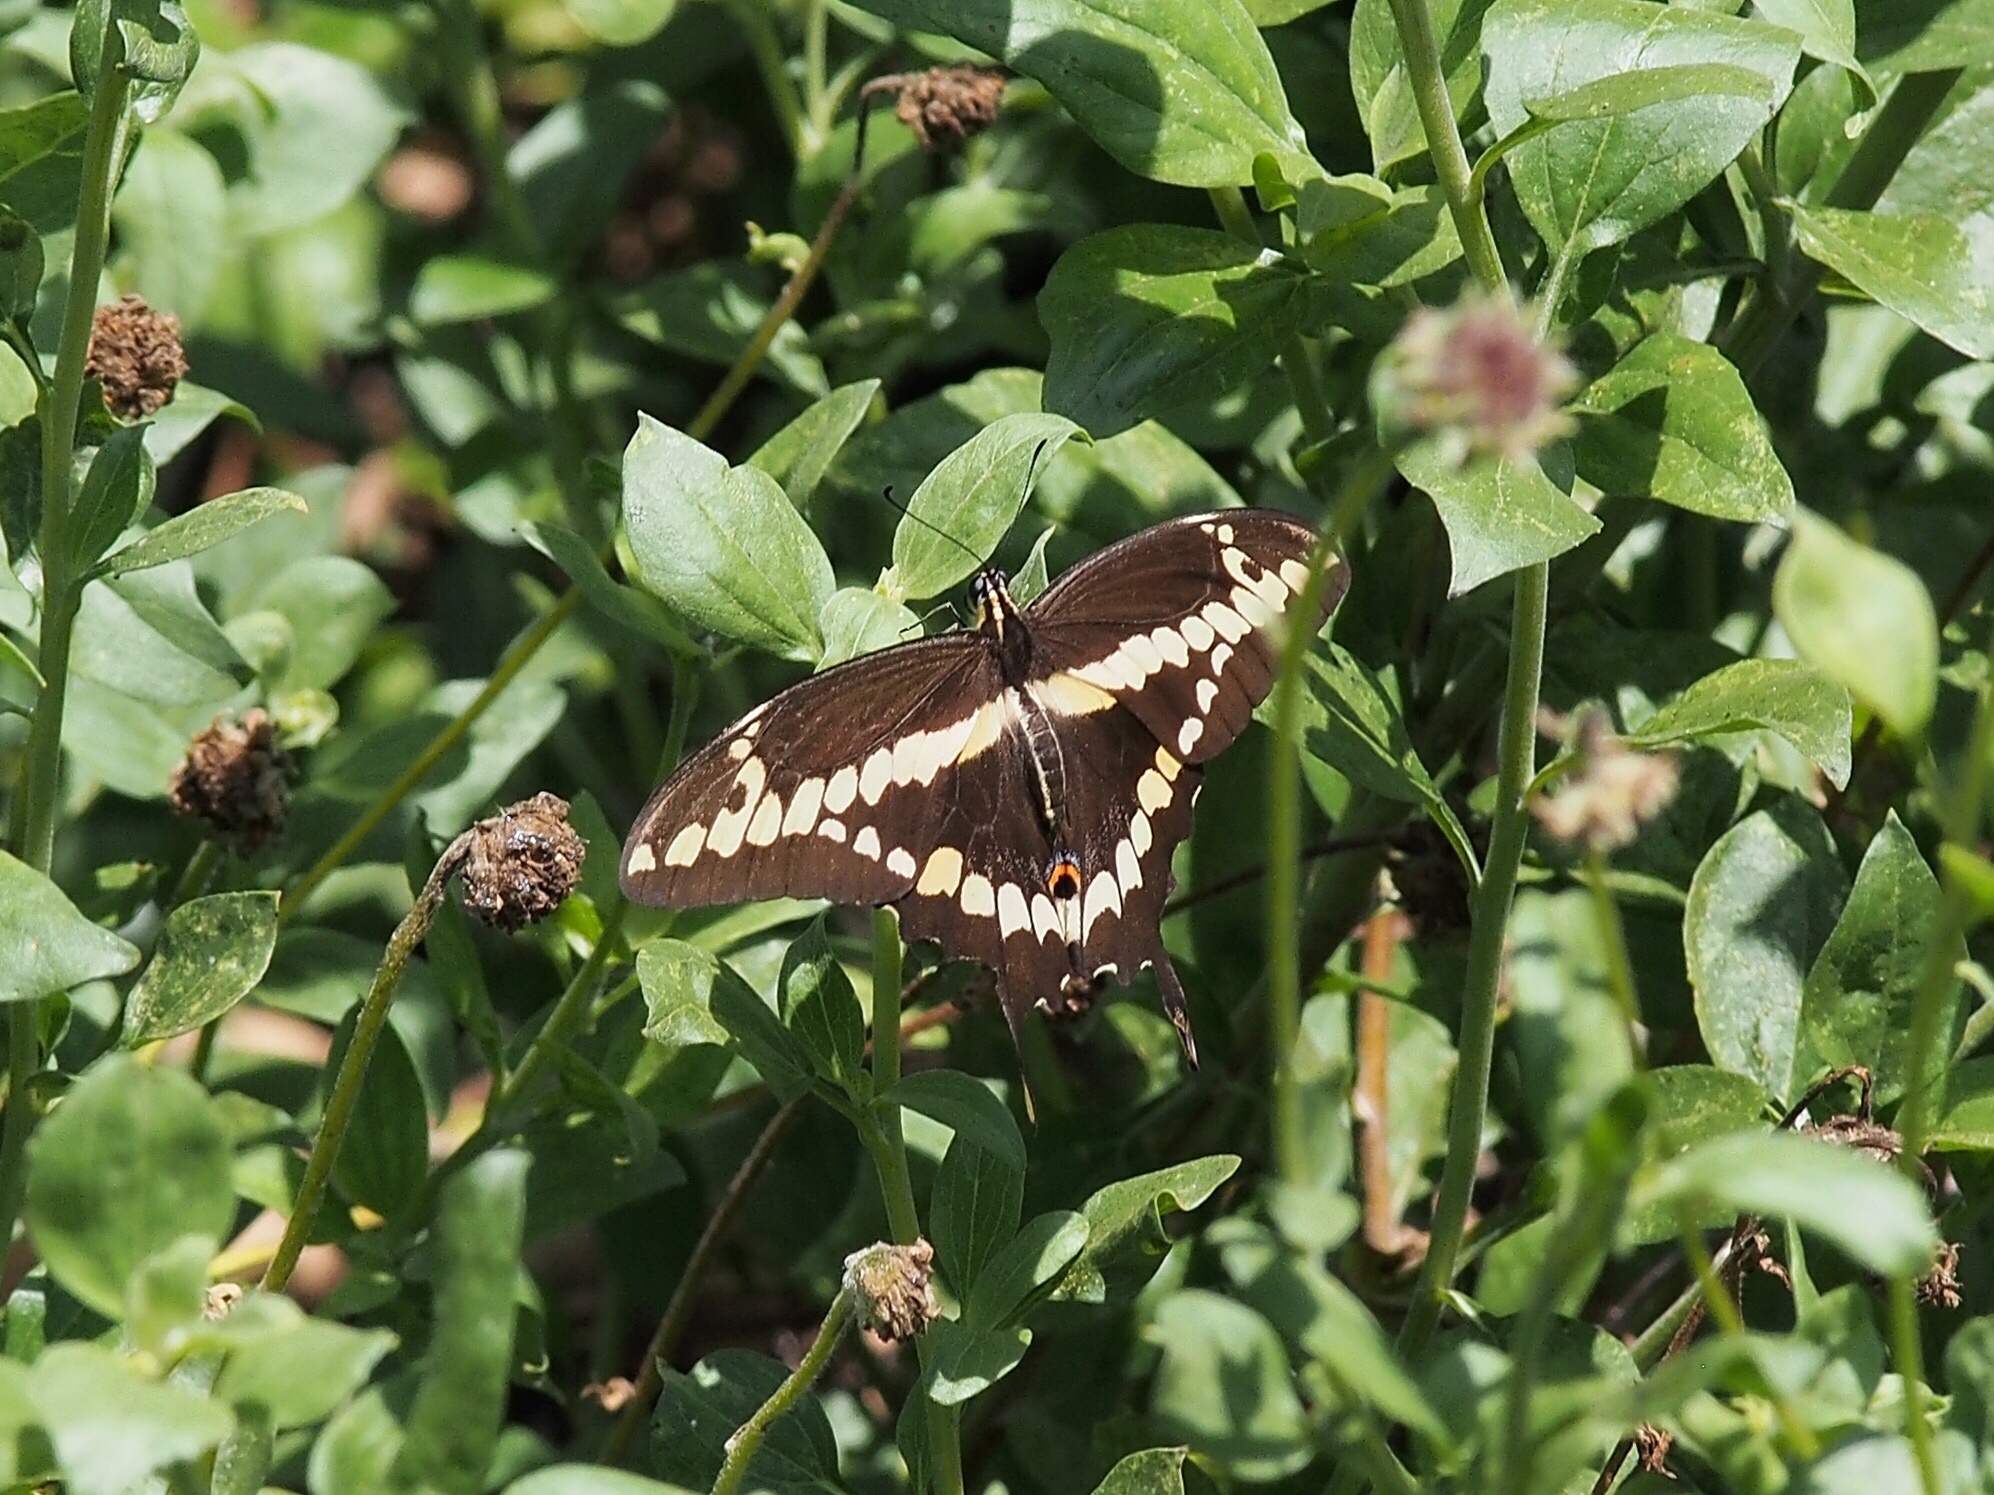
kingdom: Animalia
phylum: Arthropoda
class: Insecta
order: Lepidoptera
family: Papilionidae
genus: Papilio
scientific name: Papilio rumiko
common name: Western giant swallowtail
